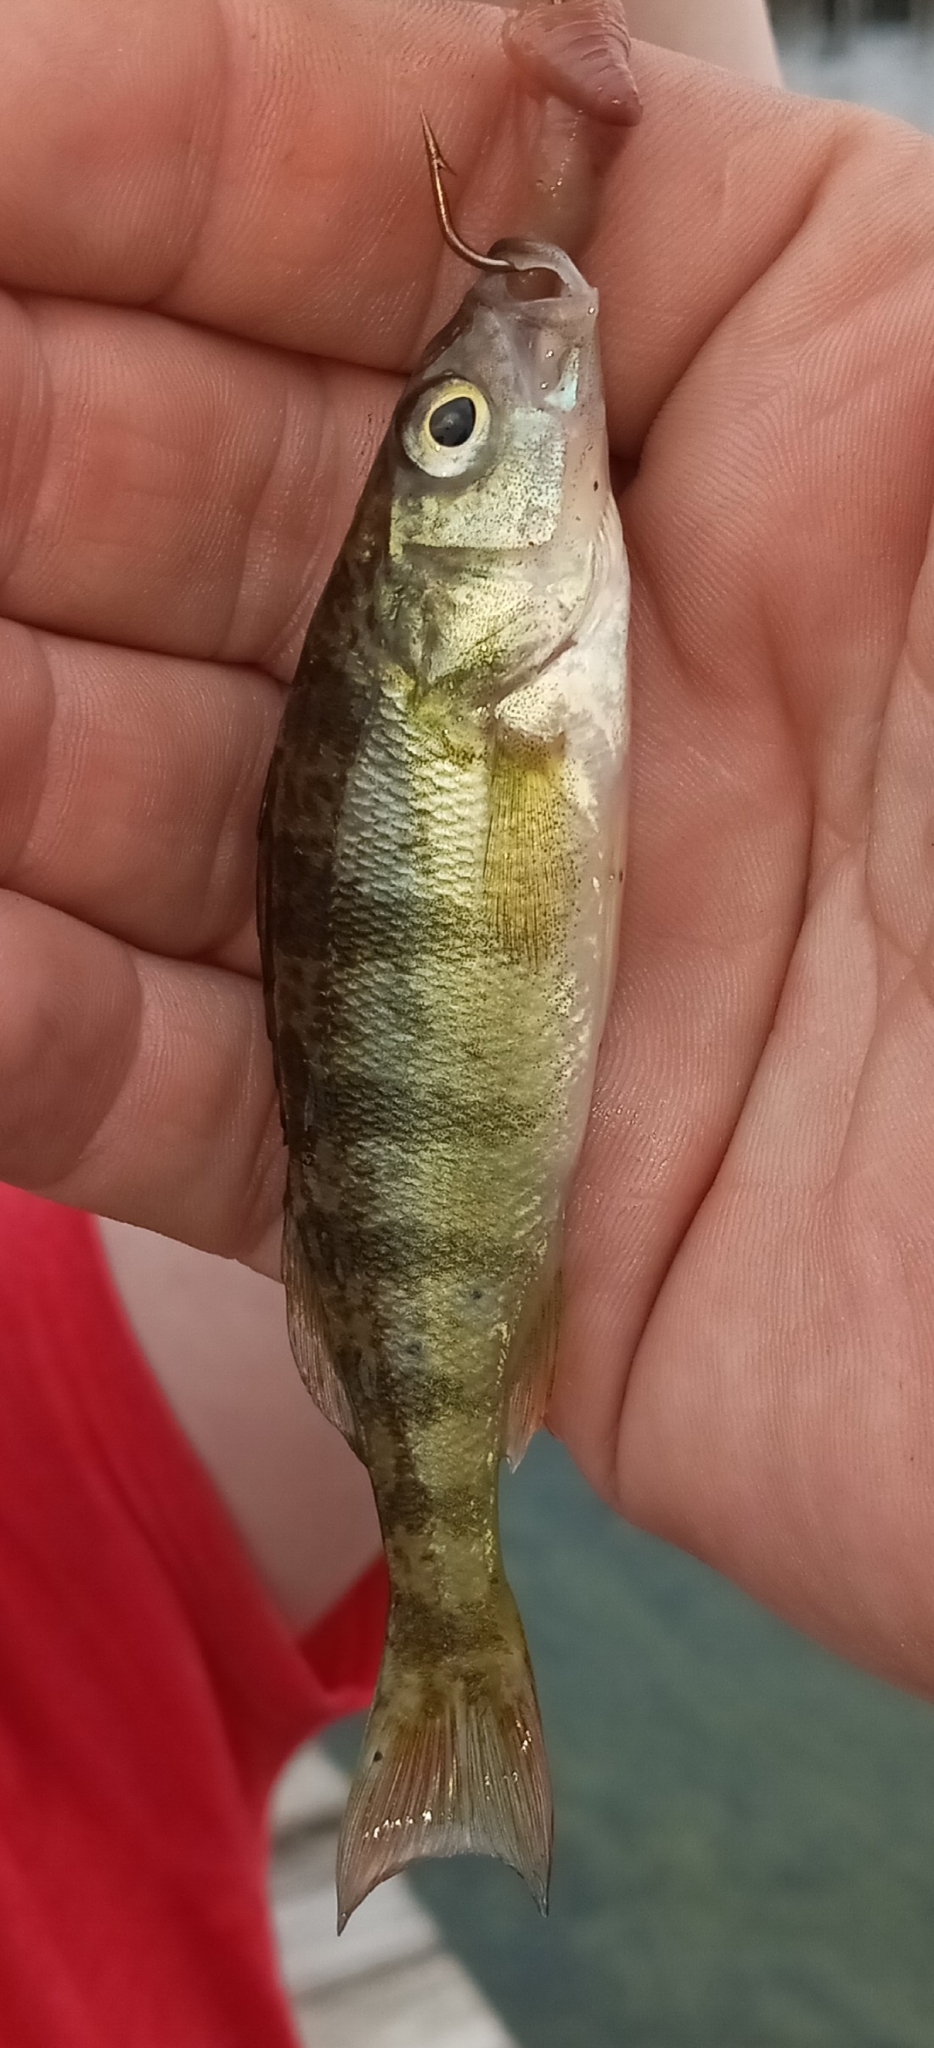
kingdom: Animalia
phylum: Chordata
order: Perciformes
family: Percidae
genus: Perca
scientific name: Perca flavescens
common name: Yellow perch
